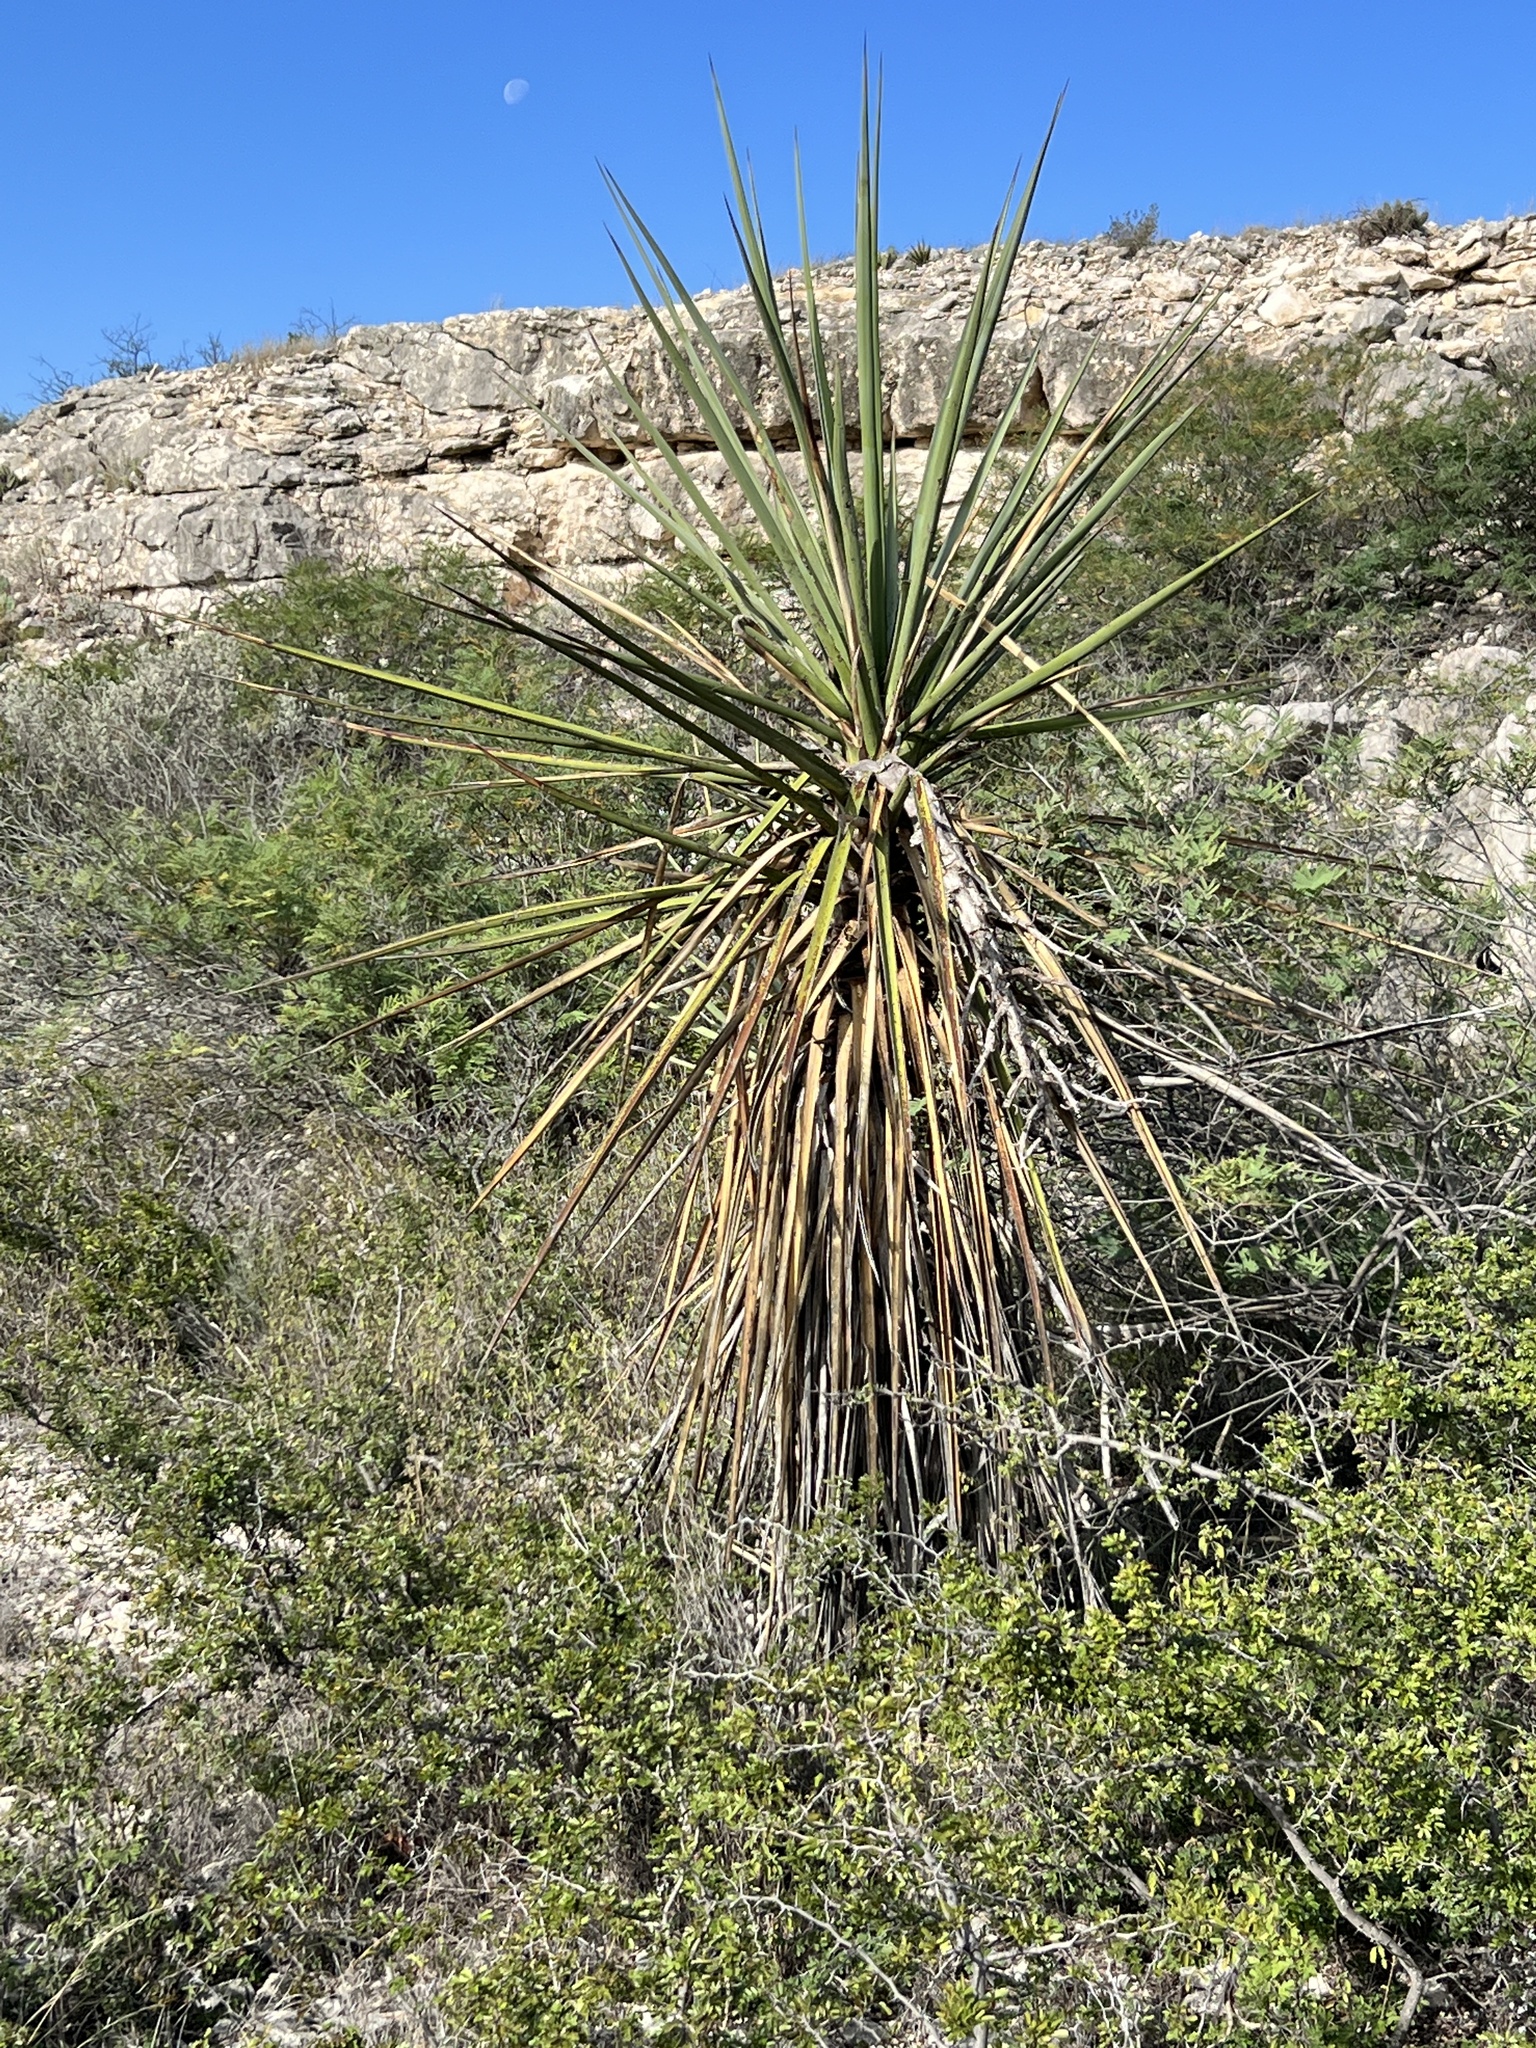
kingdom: Plantae
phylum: Tracheophyta
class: Liliopsida
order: Asparagales
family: Asparagaceae
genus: Yucca
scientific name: Yucca treculiana
